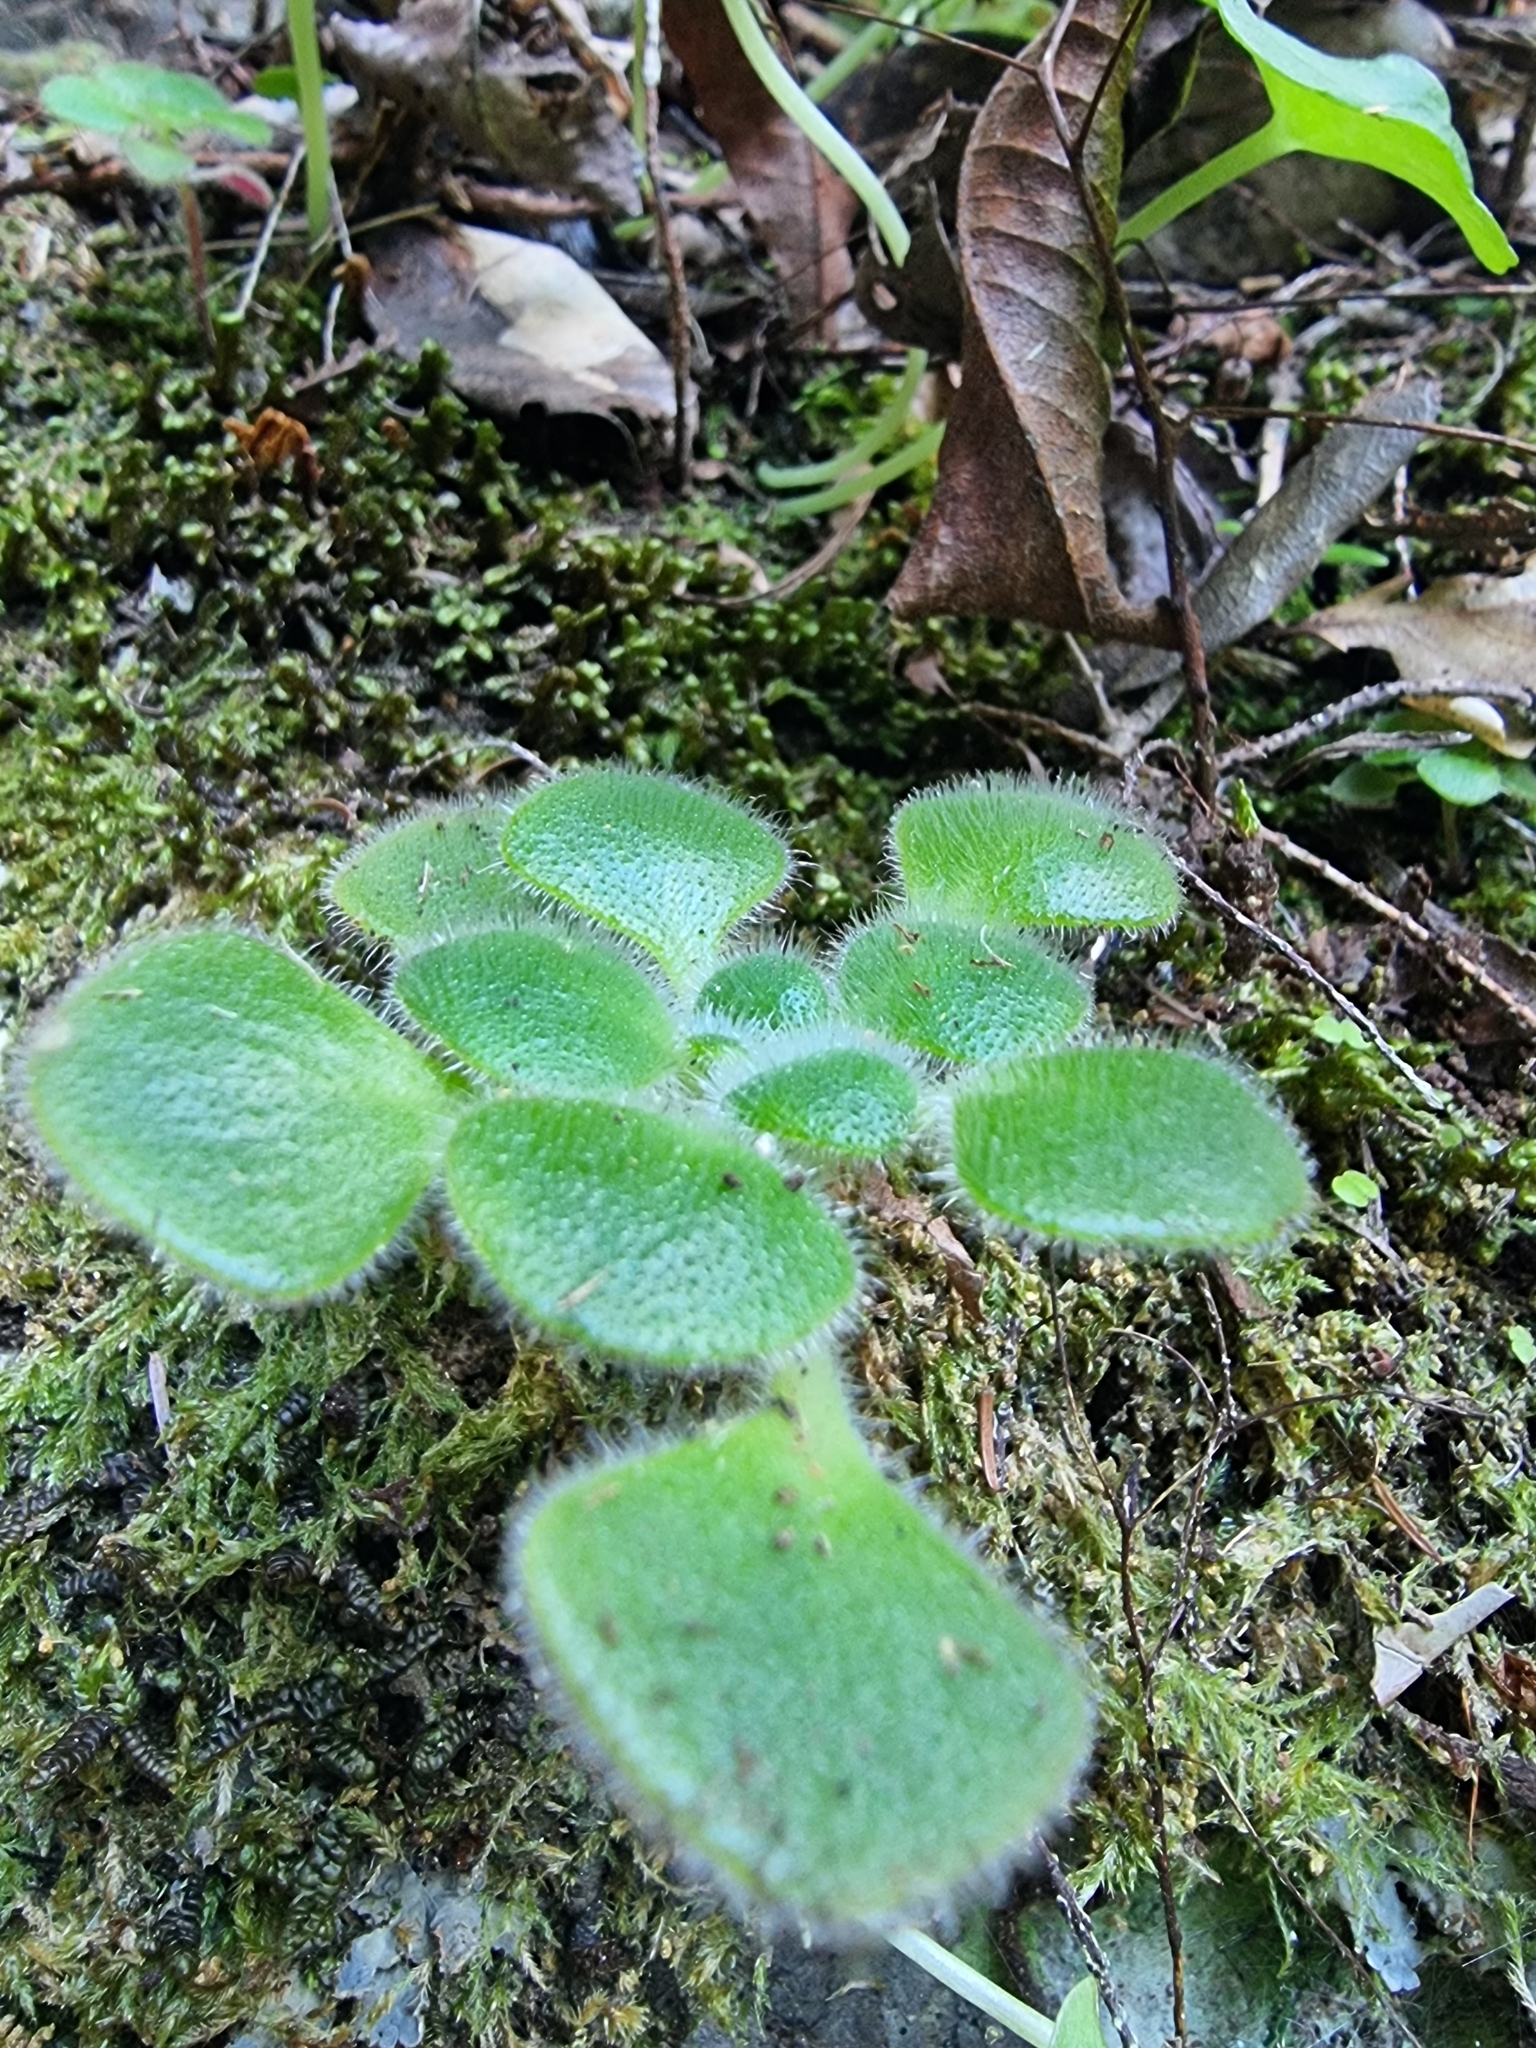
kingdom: Plantae
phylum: Tracheophyta
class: Magnoliopsida
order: Saxifragales
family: Crassulaceae
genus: Aichryson
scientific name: Aichryson villosum
